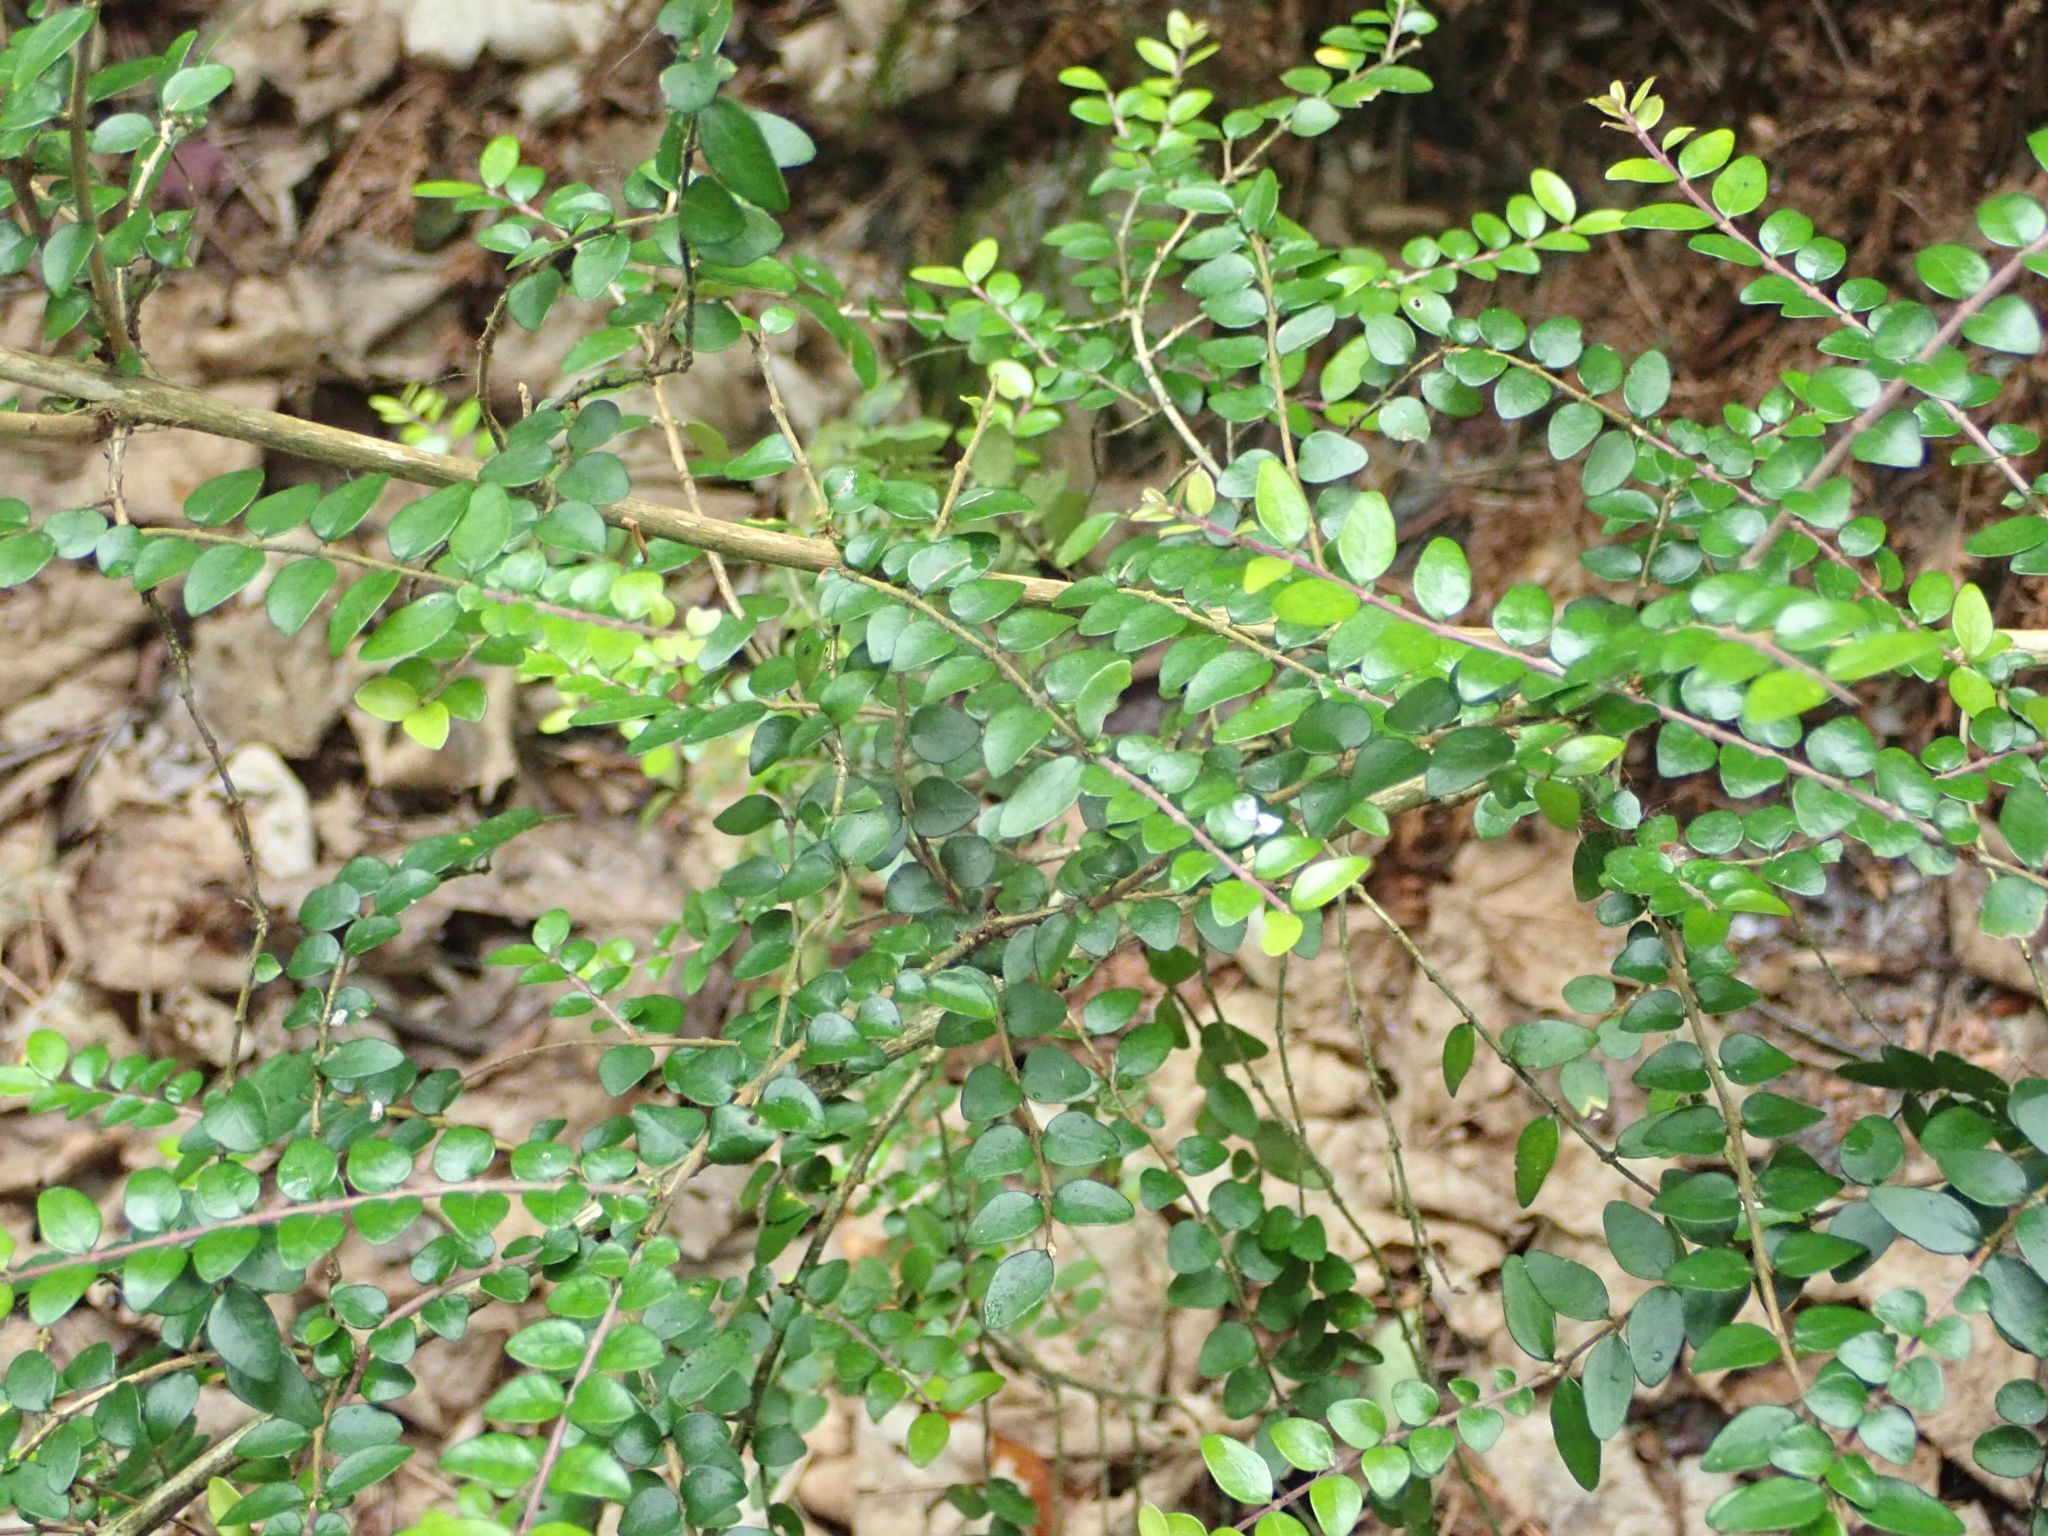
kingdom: Plantae
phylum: Tracheophyta
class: Magnoliopsida
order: Dipsacales
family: Caprifoliaceae
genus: Lonicera
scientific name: Lonicera pileata
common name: Box-leaved honeysuckle
